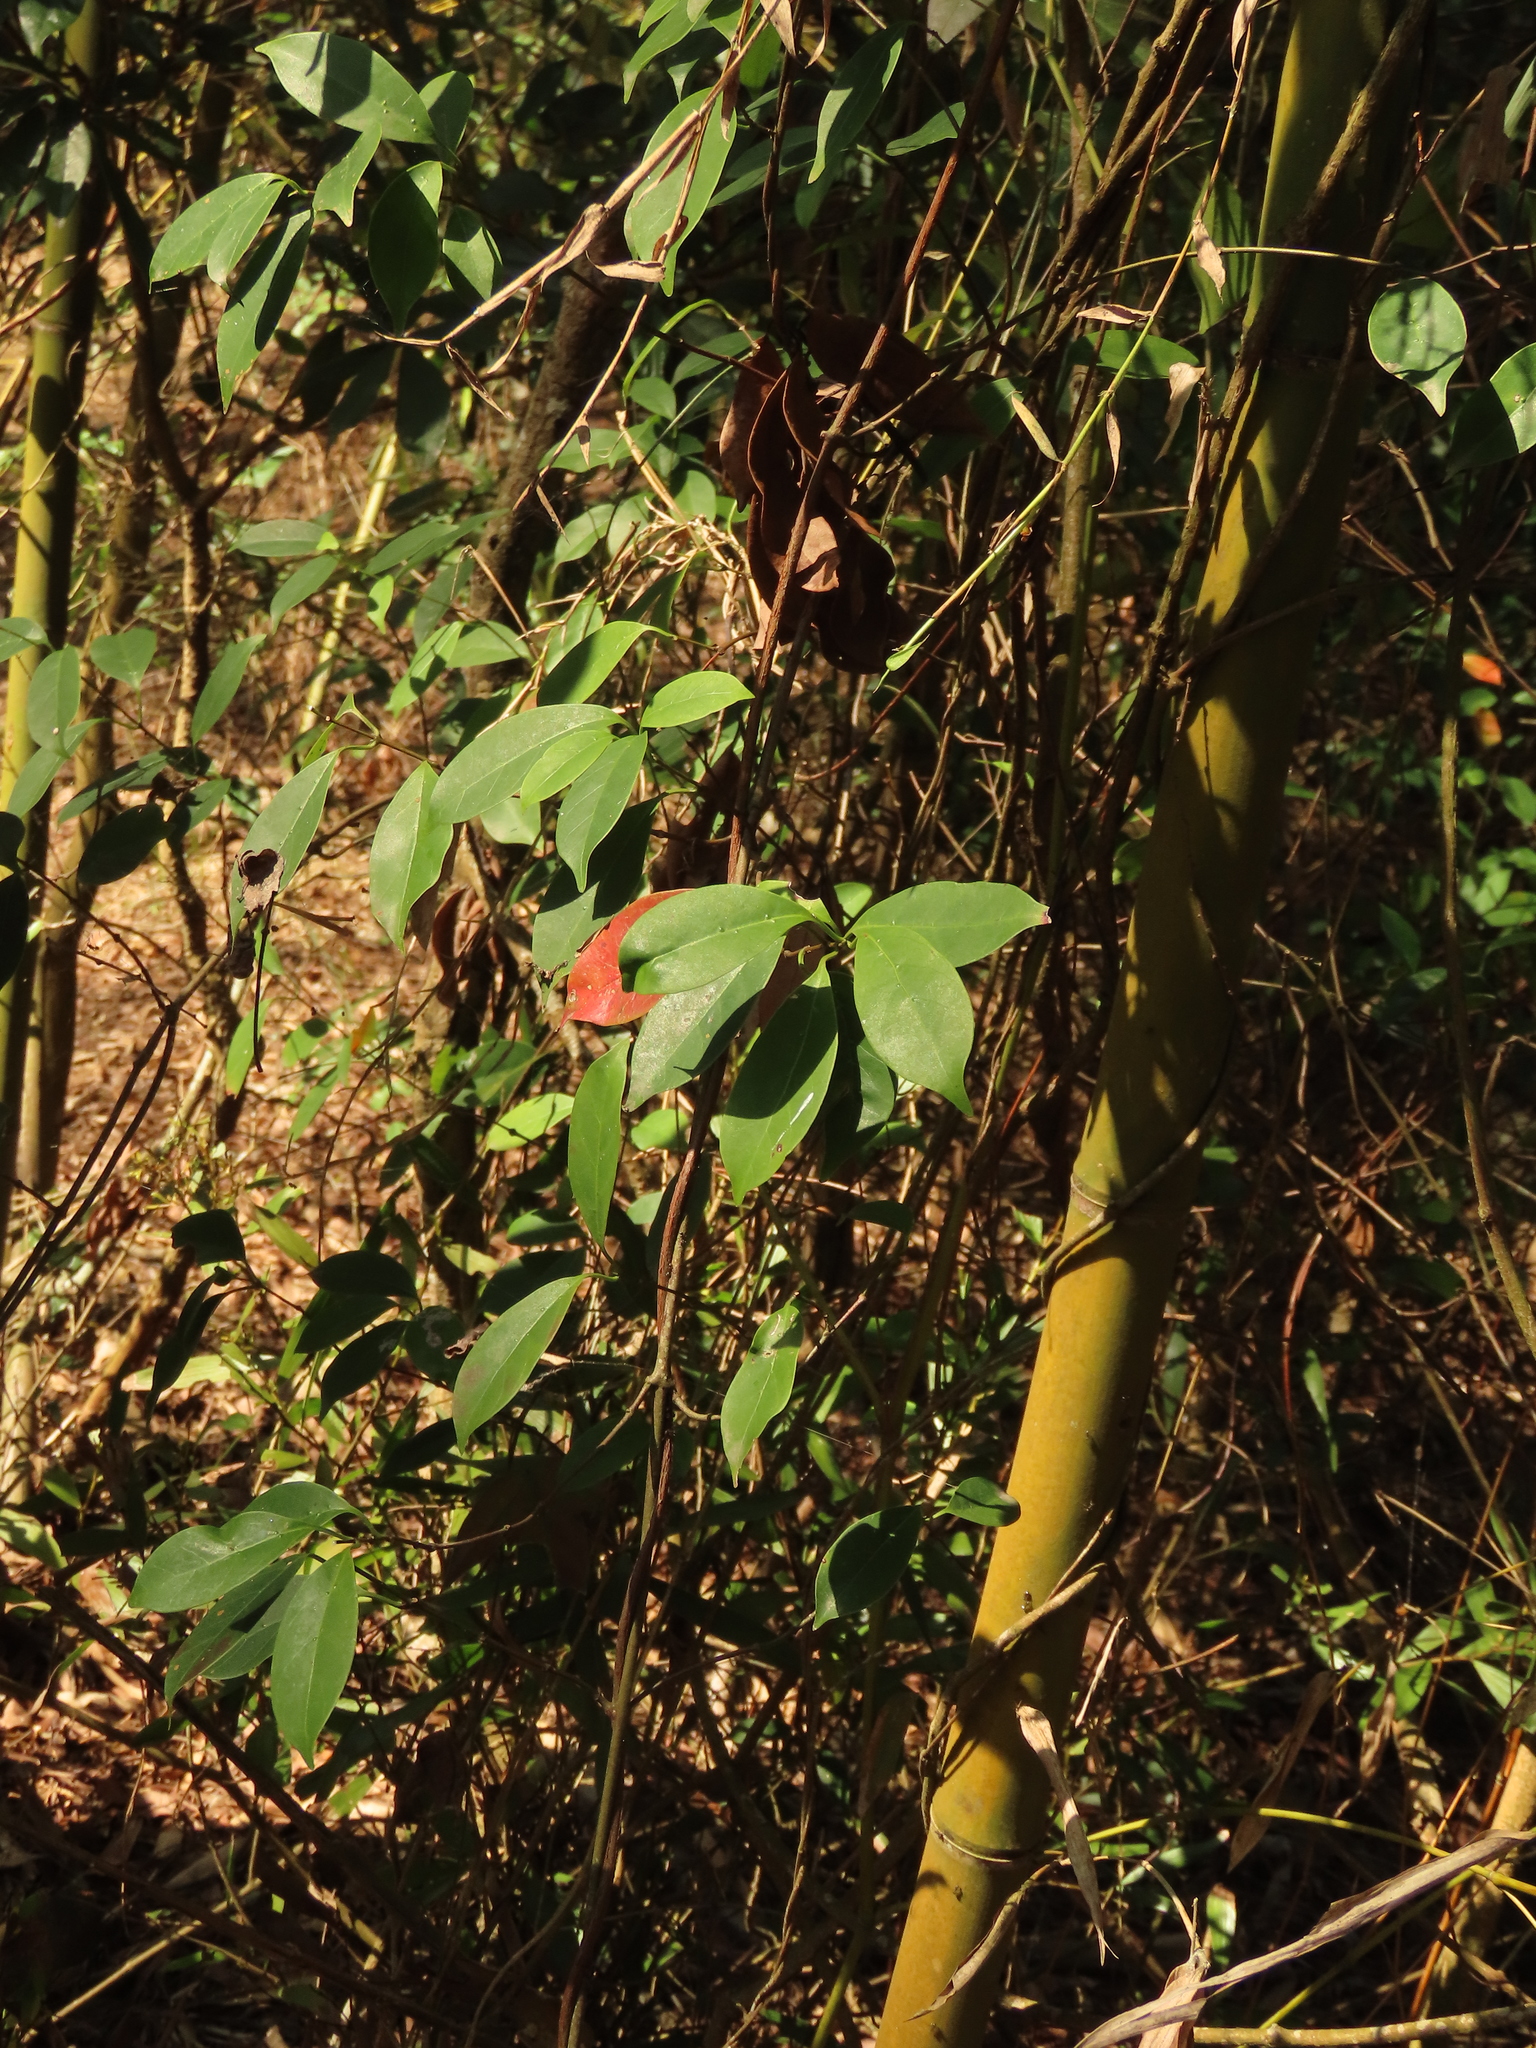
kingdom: Plantae
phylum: Tracheophyta
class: Magnoliopsida
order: Gentianales
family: Apocynaceae
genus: Urceola
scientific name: Urceola rosea
